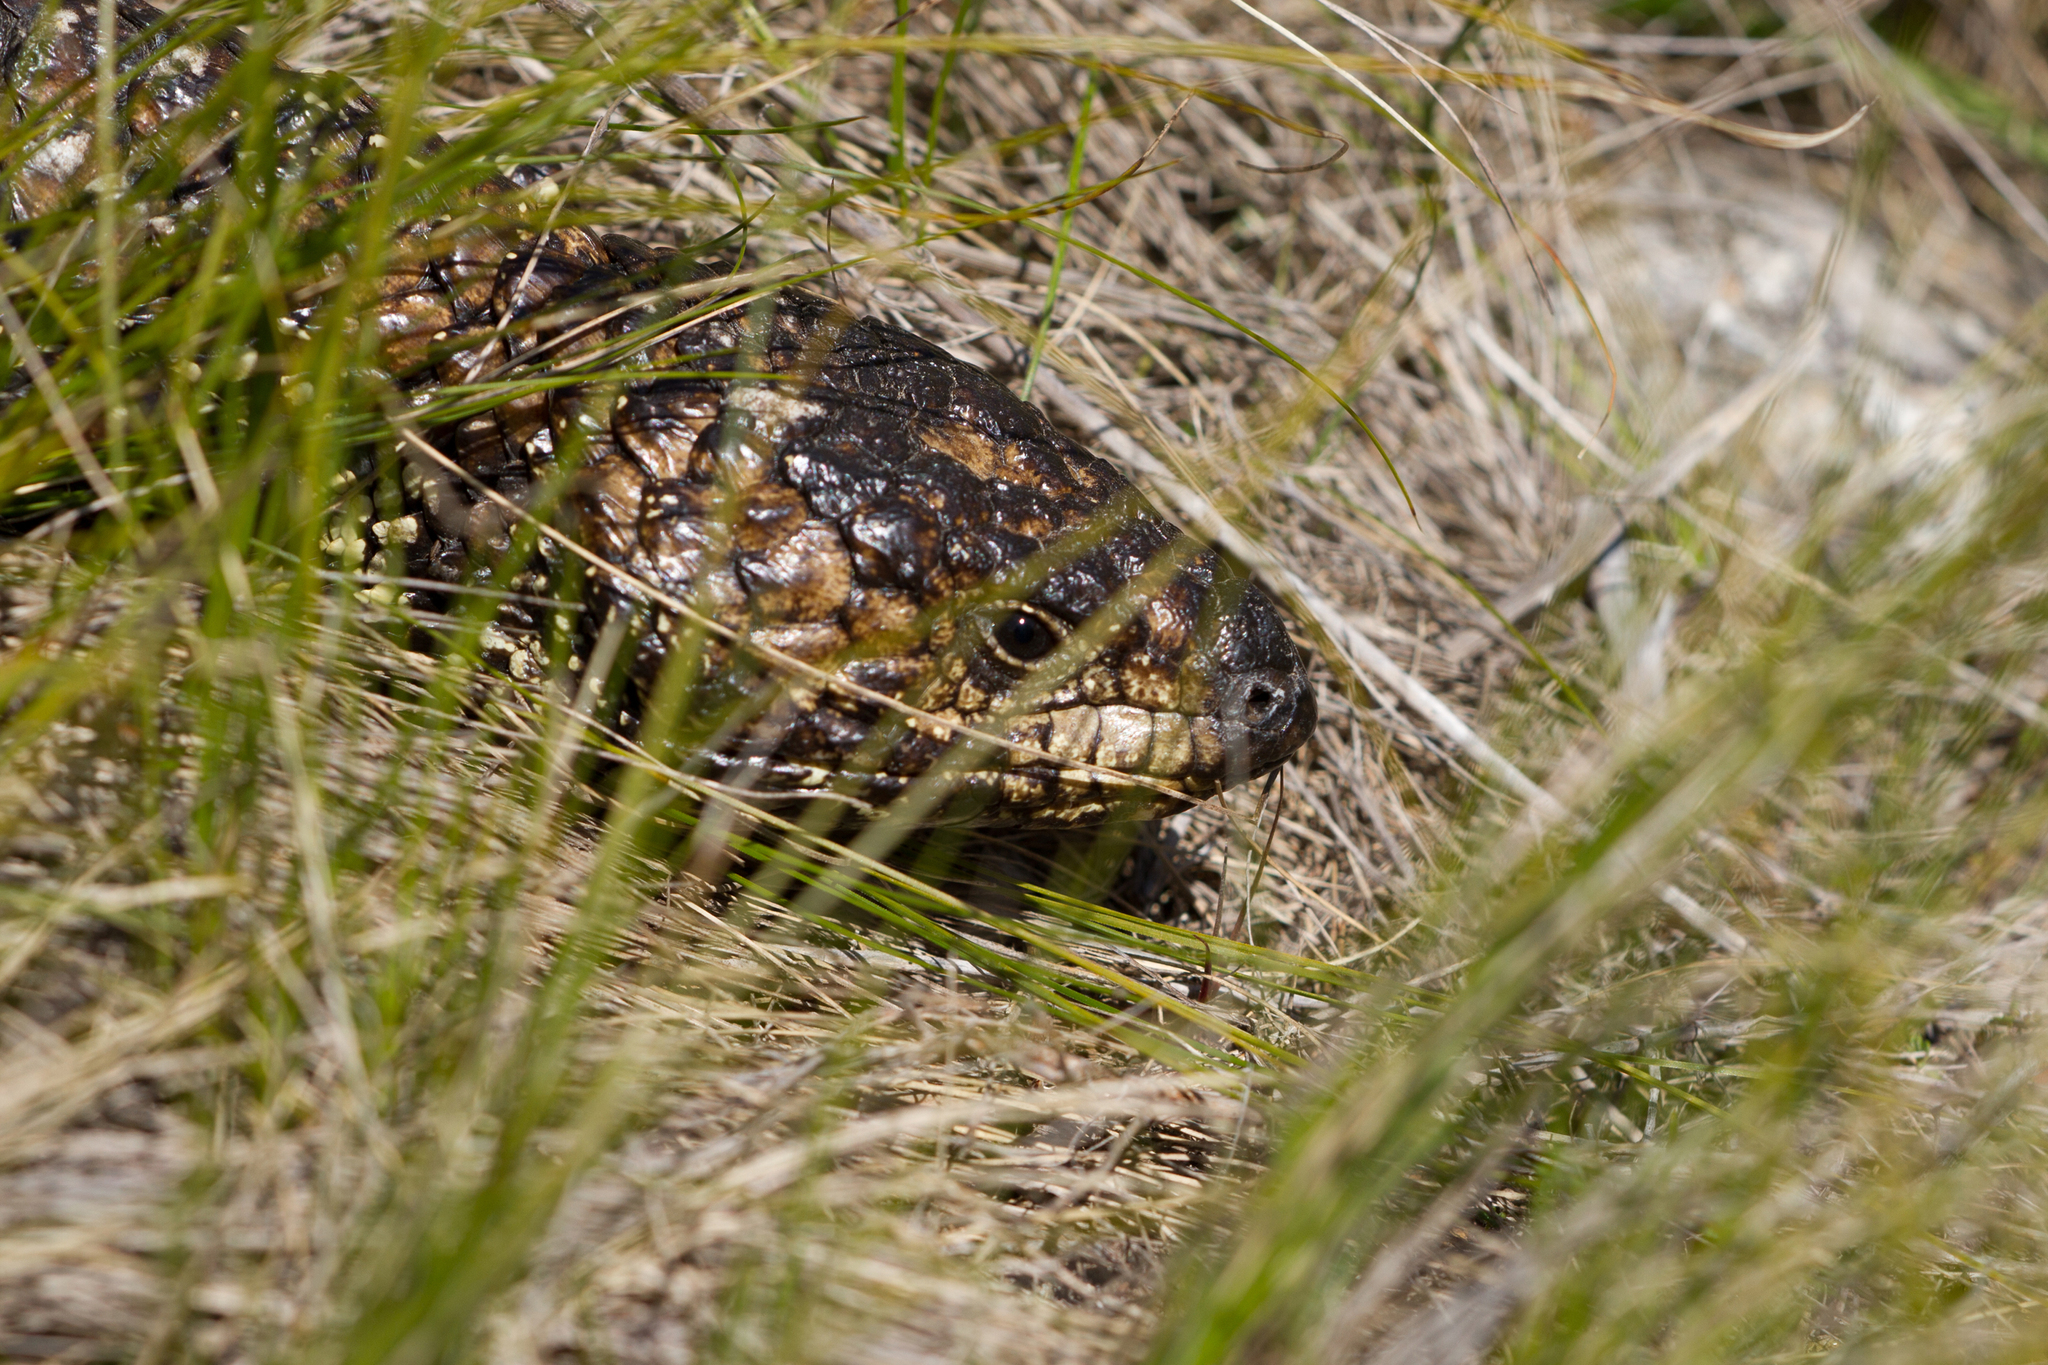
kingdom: Animalia
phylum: Chordata
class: Squamata
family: Scincidae
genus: Tiliqua
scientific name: Tiliqua rugosa
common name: Pinecone lizard
